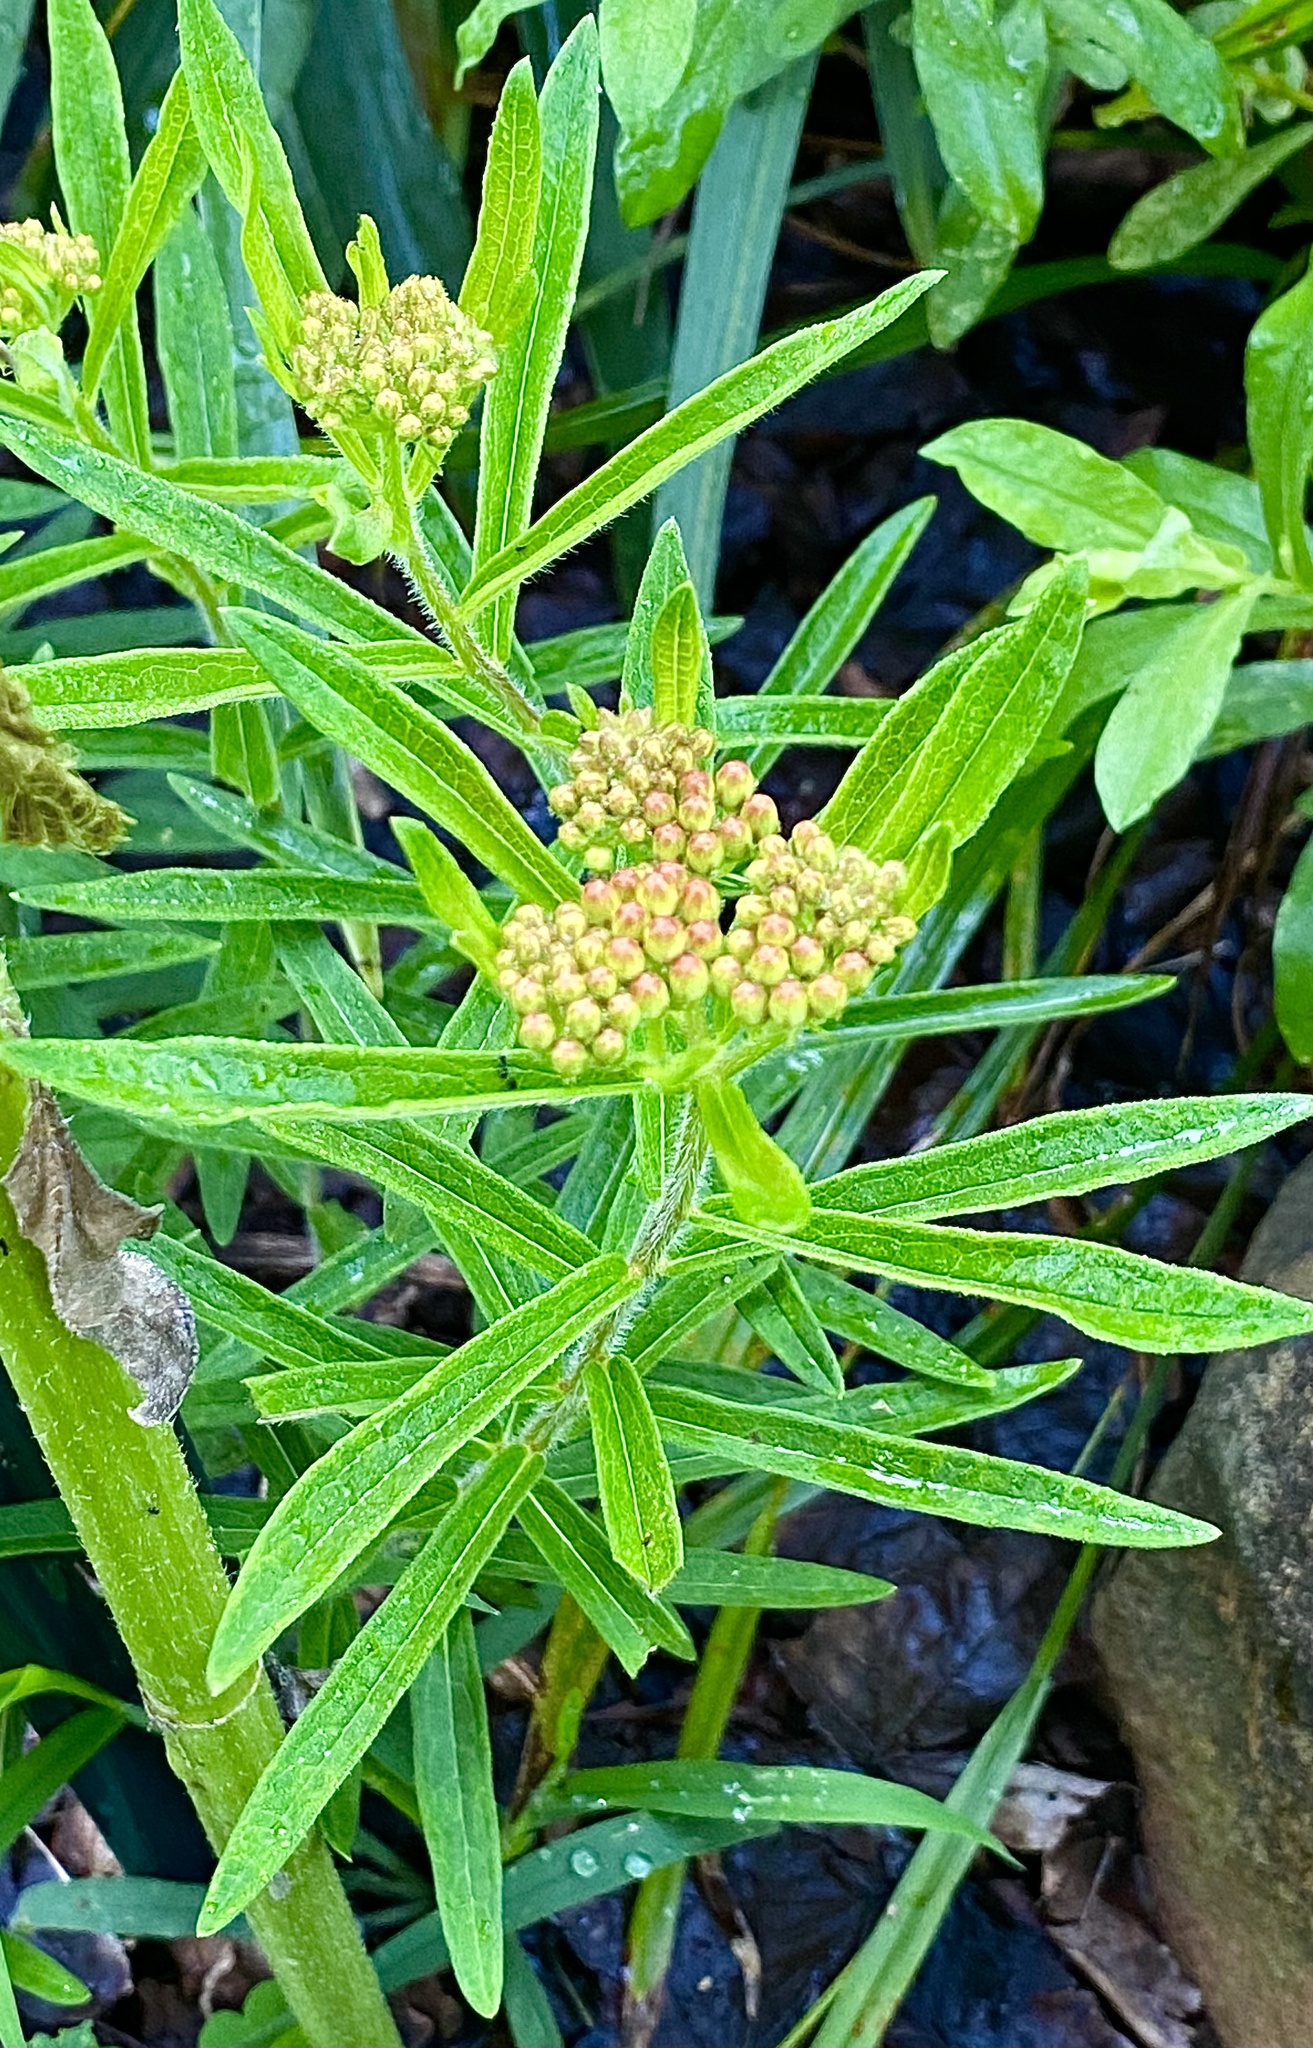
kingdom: Plantae
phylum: Tracheophyta
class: Magnoliopsida
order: Gentianales
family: Apocynaceae
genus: Asclepias
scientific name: Asclepias tuberosa
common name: Butterfly milkweed
